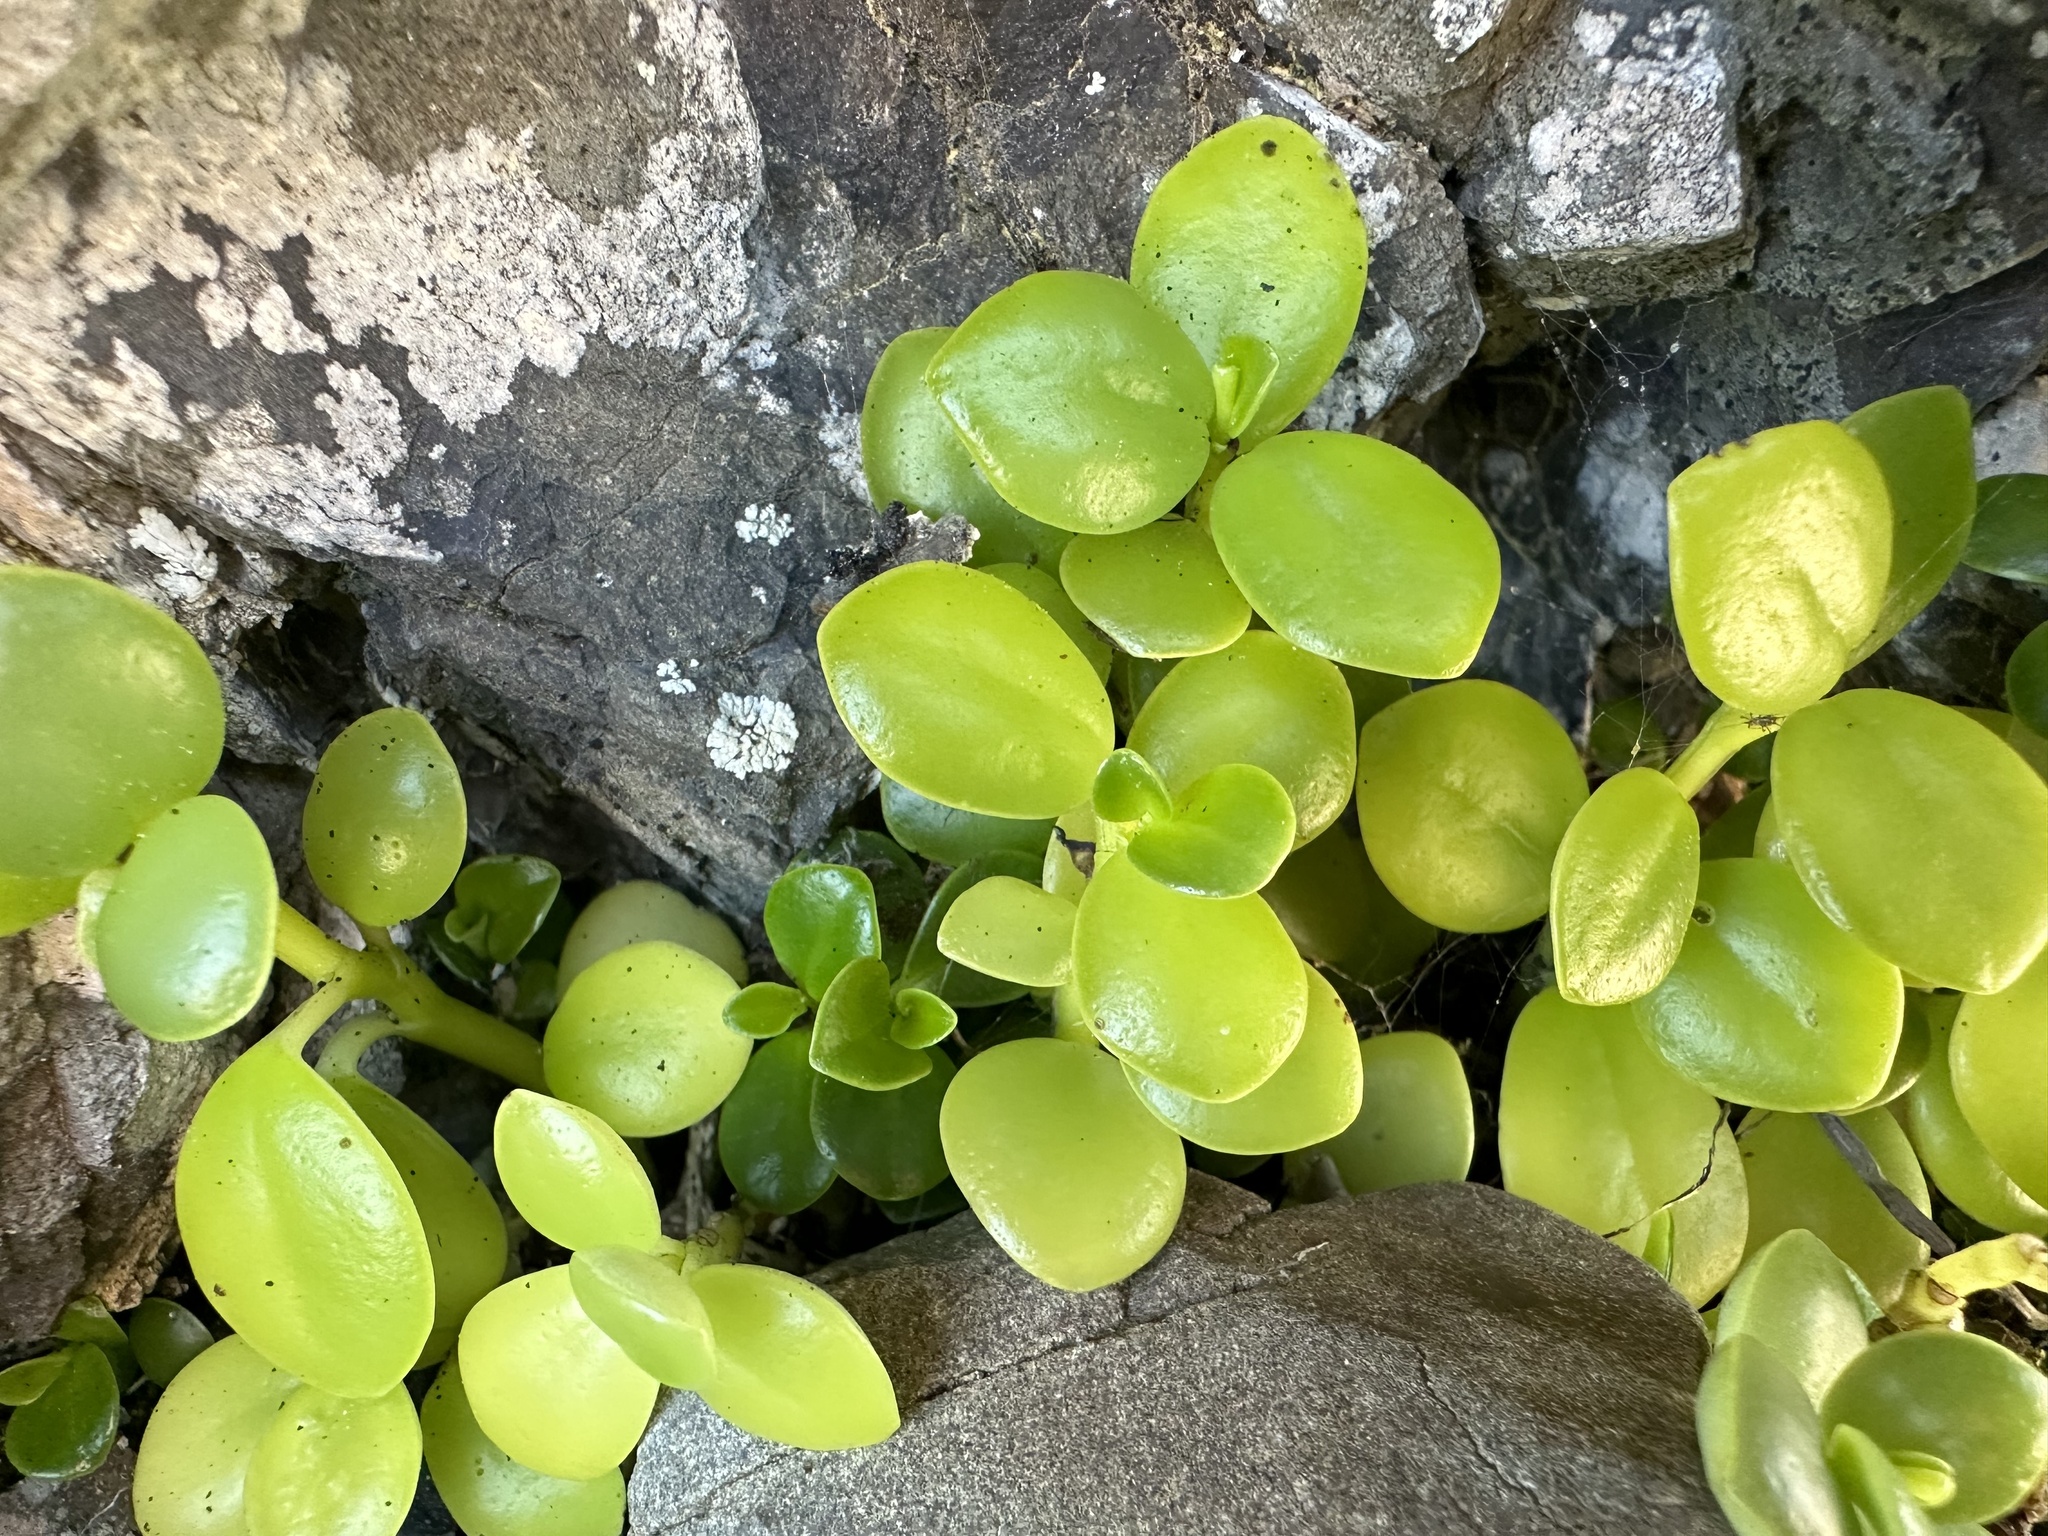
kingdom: Plantae
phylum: Tracheophyta
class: Magnoliopsida
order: Piperales
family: Piperaceae
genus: Peperomia
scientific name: Peperomia urvilleana
